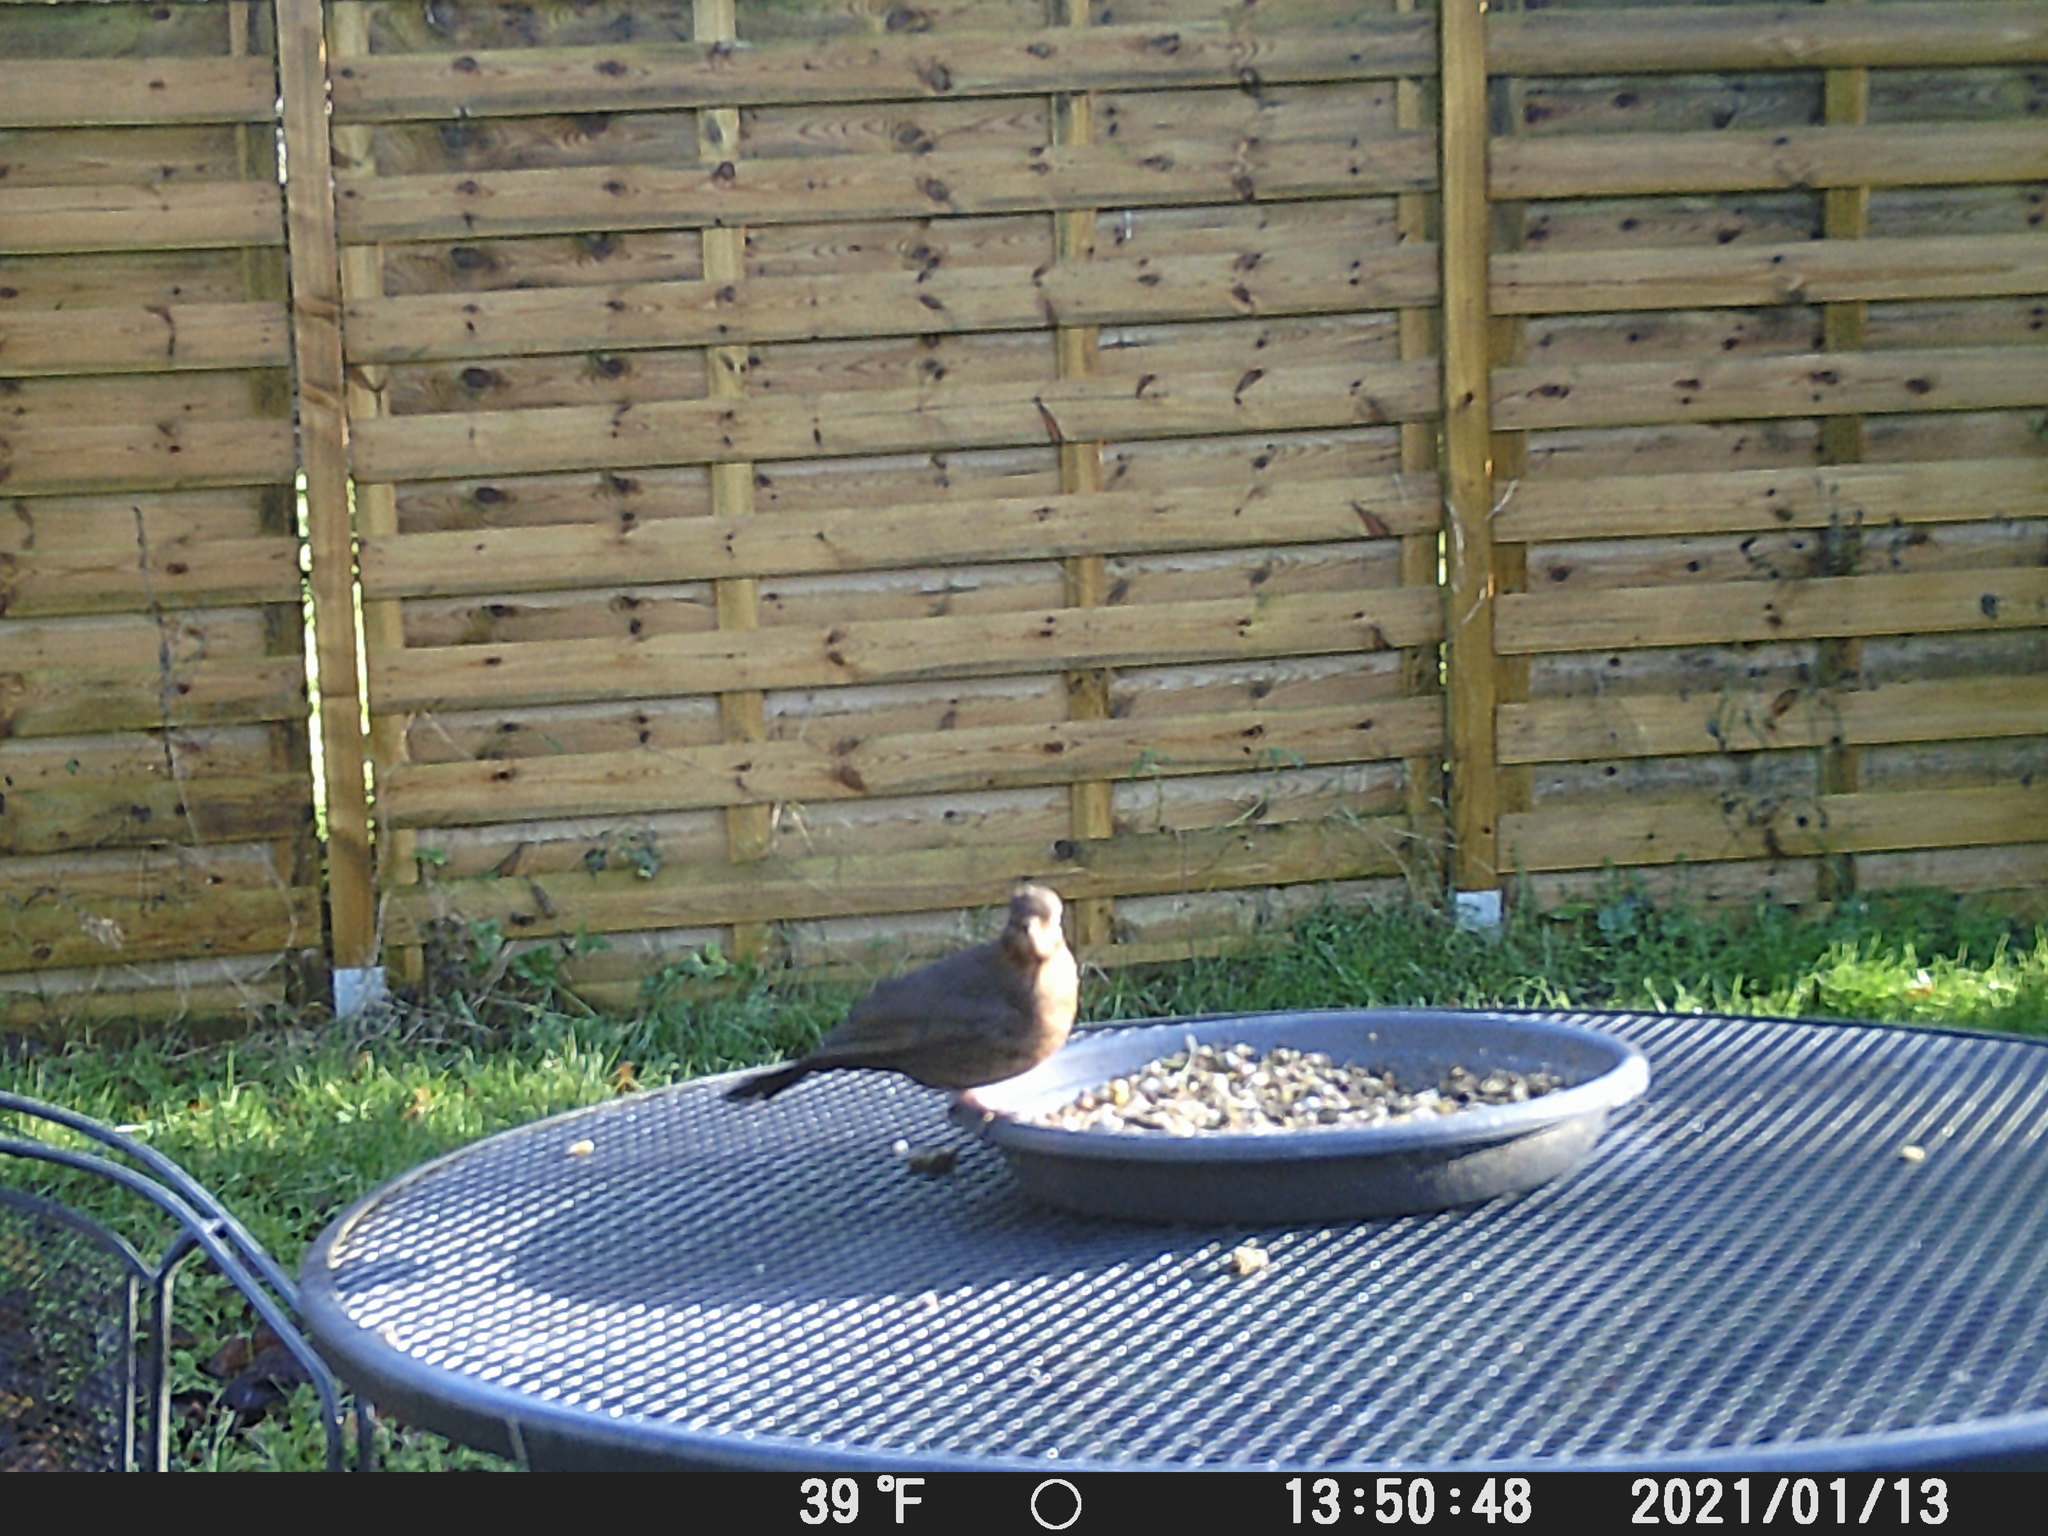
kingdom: Animalia
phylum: Chordata
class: Aves
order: Passeriformes
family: Turdidae
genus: Turdus
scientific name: Turdus merula
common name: Common blackbird
